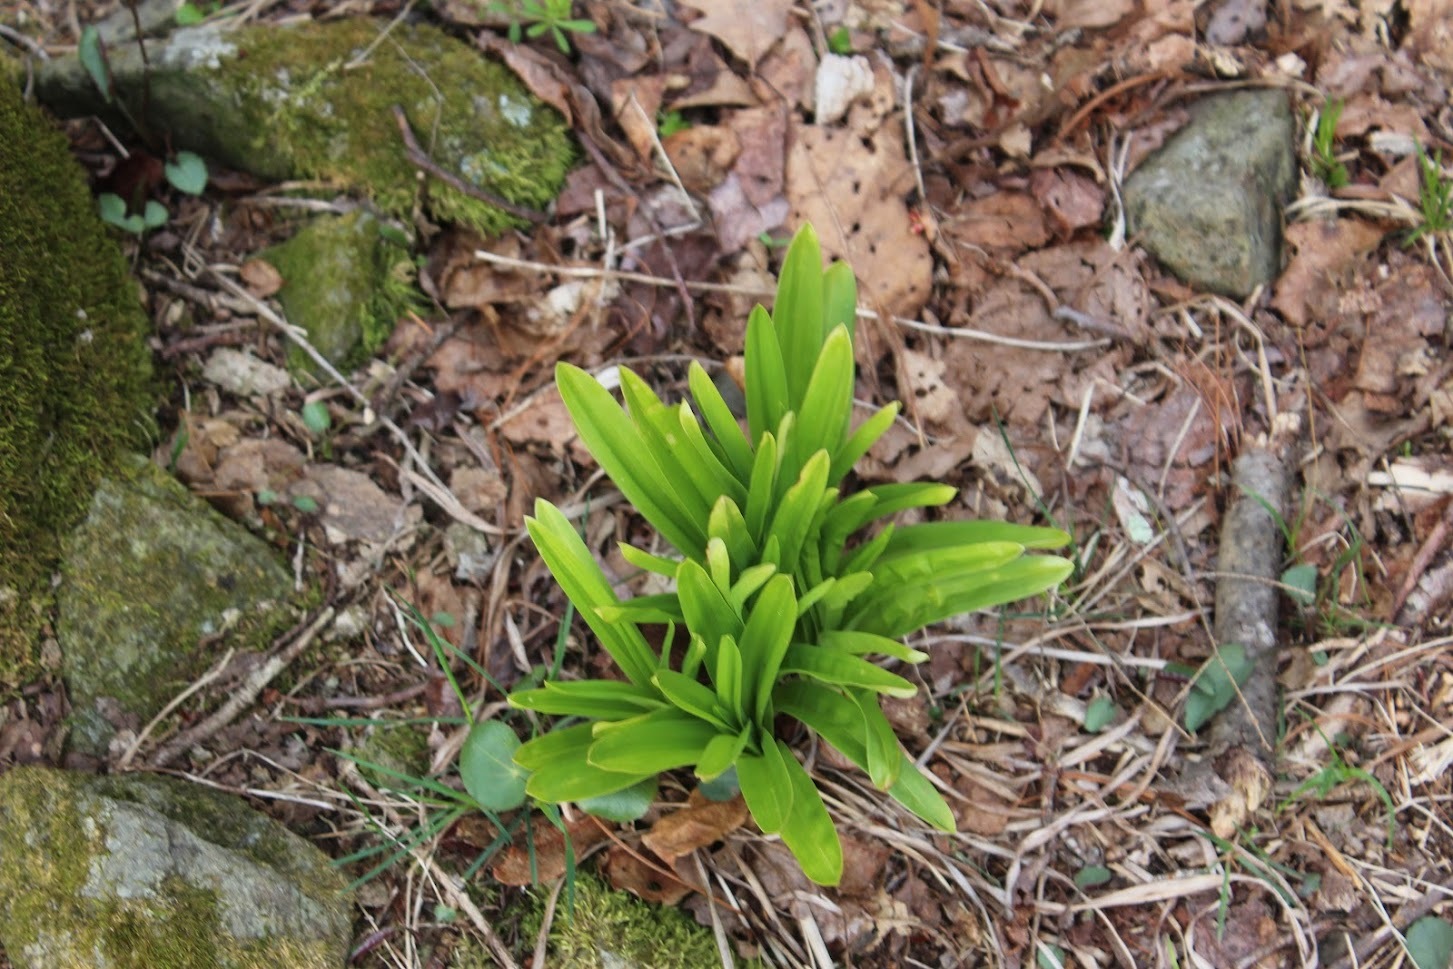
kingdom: Plantae
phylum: Tracheophyta
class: Liliopsida
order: Liliales
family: Melanthiaceae
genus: Amianthium
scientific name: Amianthium muscitoxicum
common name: Fly-poison
